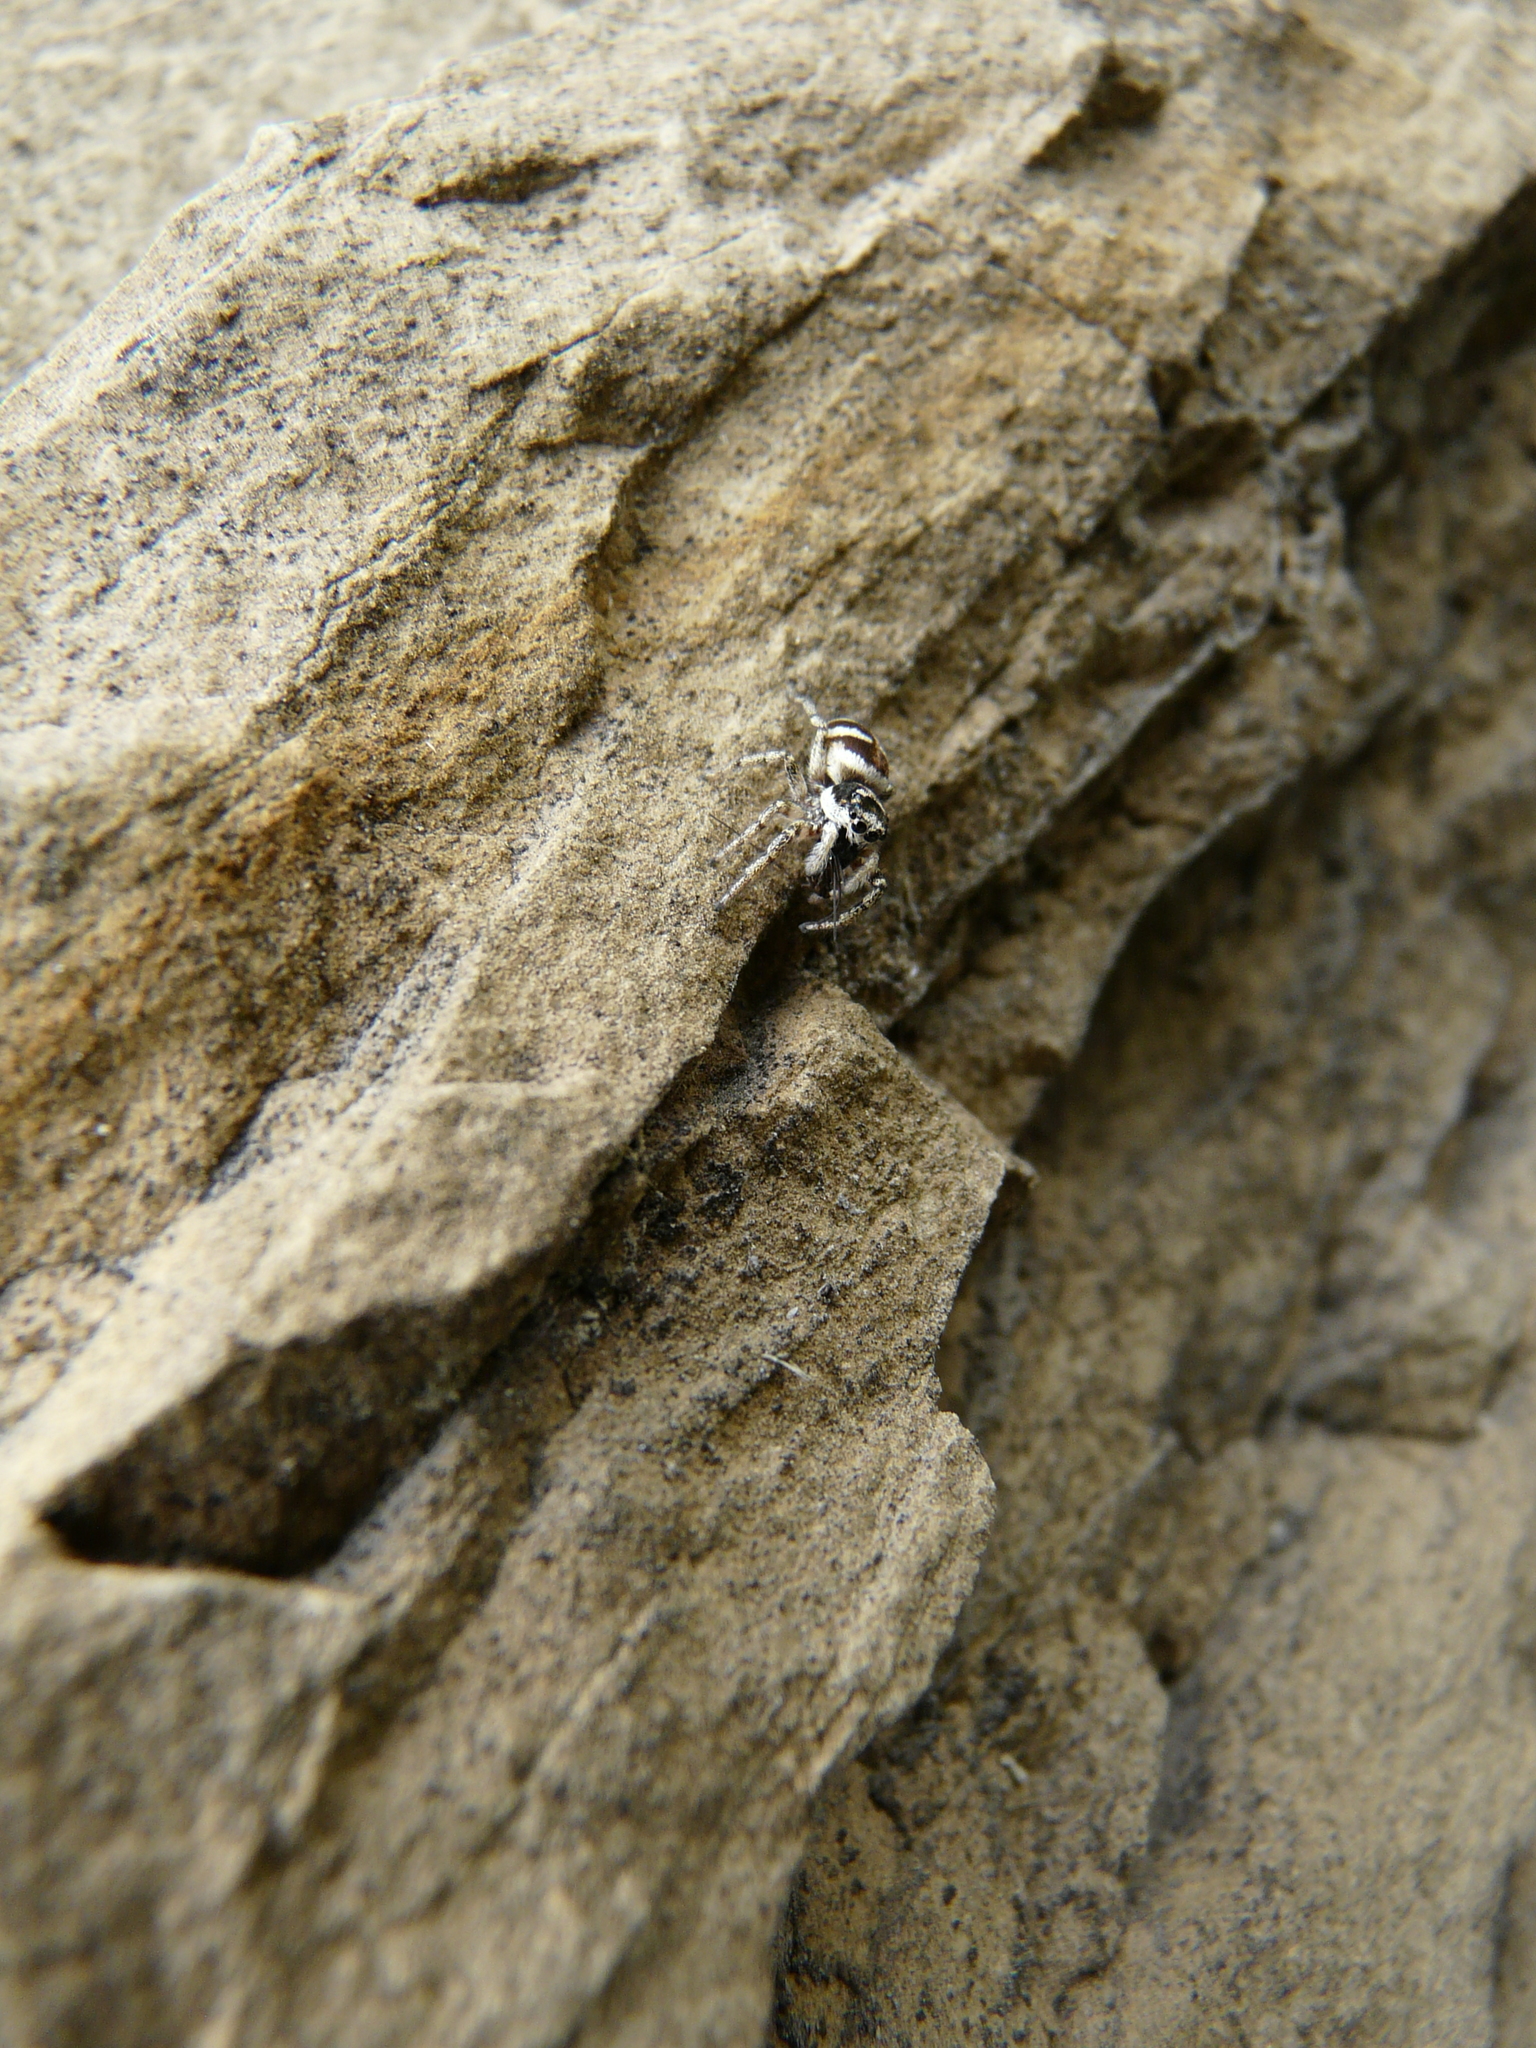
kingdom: Animalia
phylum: Arthropoda
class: Arachnida
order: Araneae
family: Salticidae
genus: Salticus
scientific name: Salticus scenicus
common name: Zebra jumper
